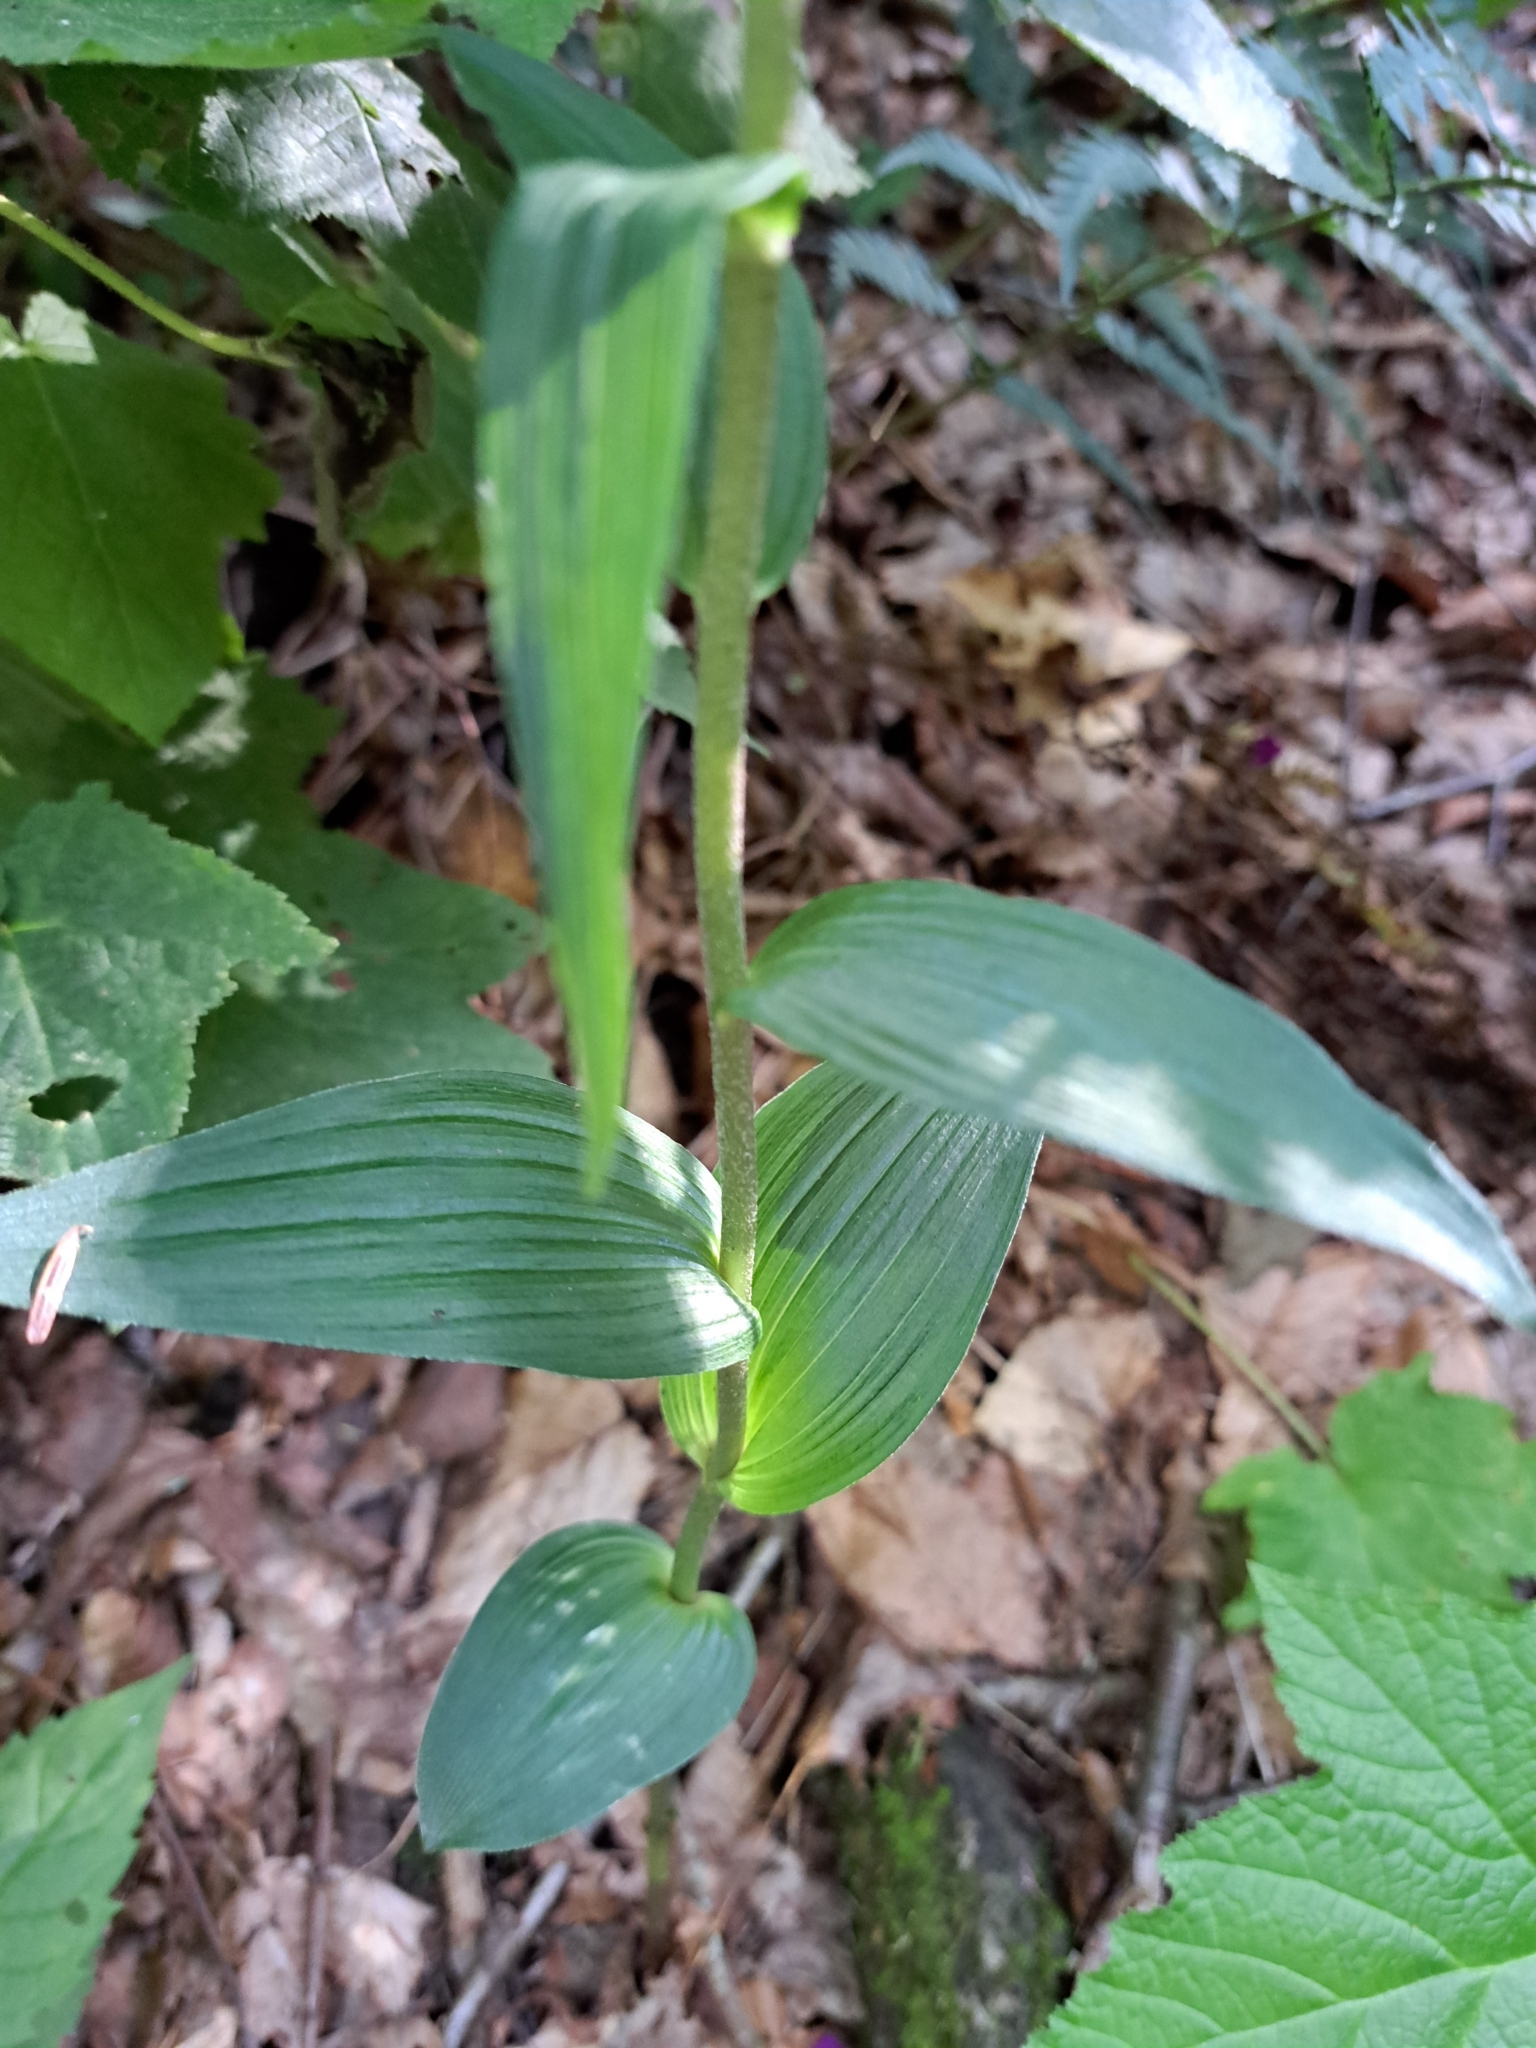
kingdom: Plantae
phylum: Tracheophyta
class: Liliopsida
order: Asparagales
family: Orchidaceae
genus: Epipactis
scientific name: Epipactis helleborine
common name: Broad-leaved helleborine
